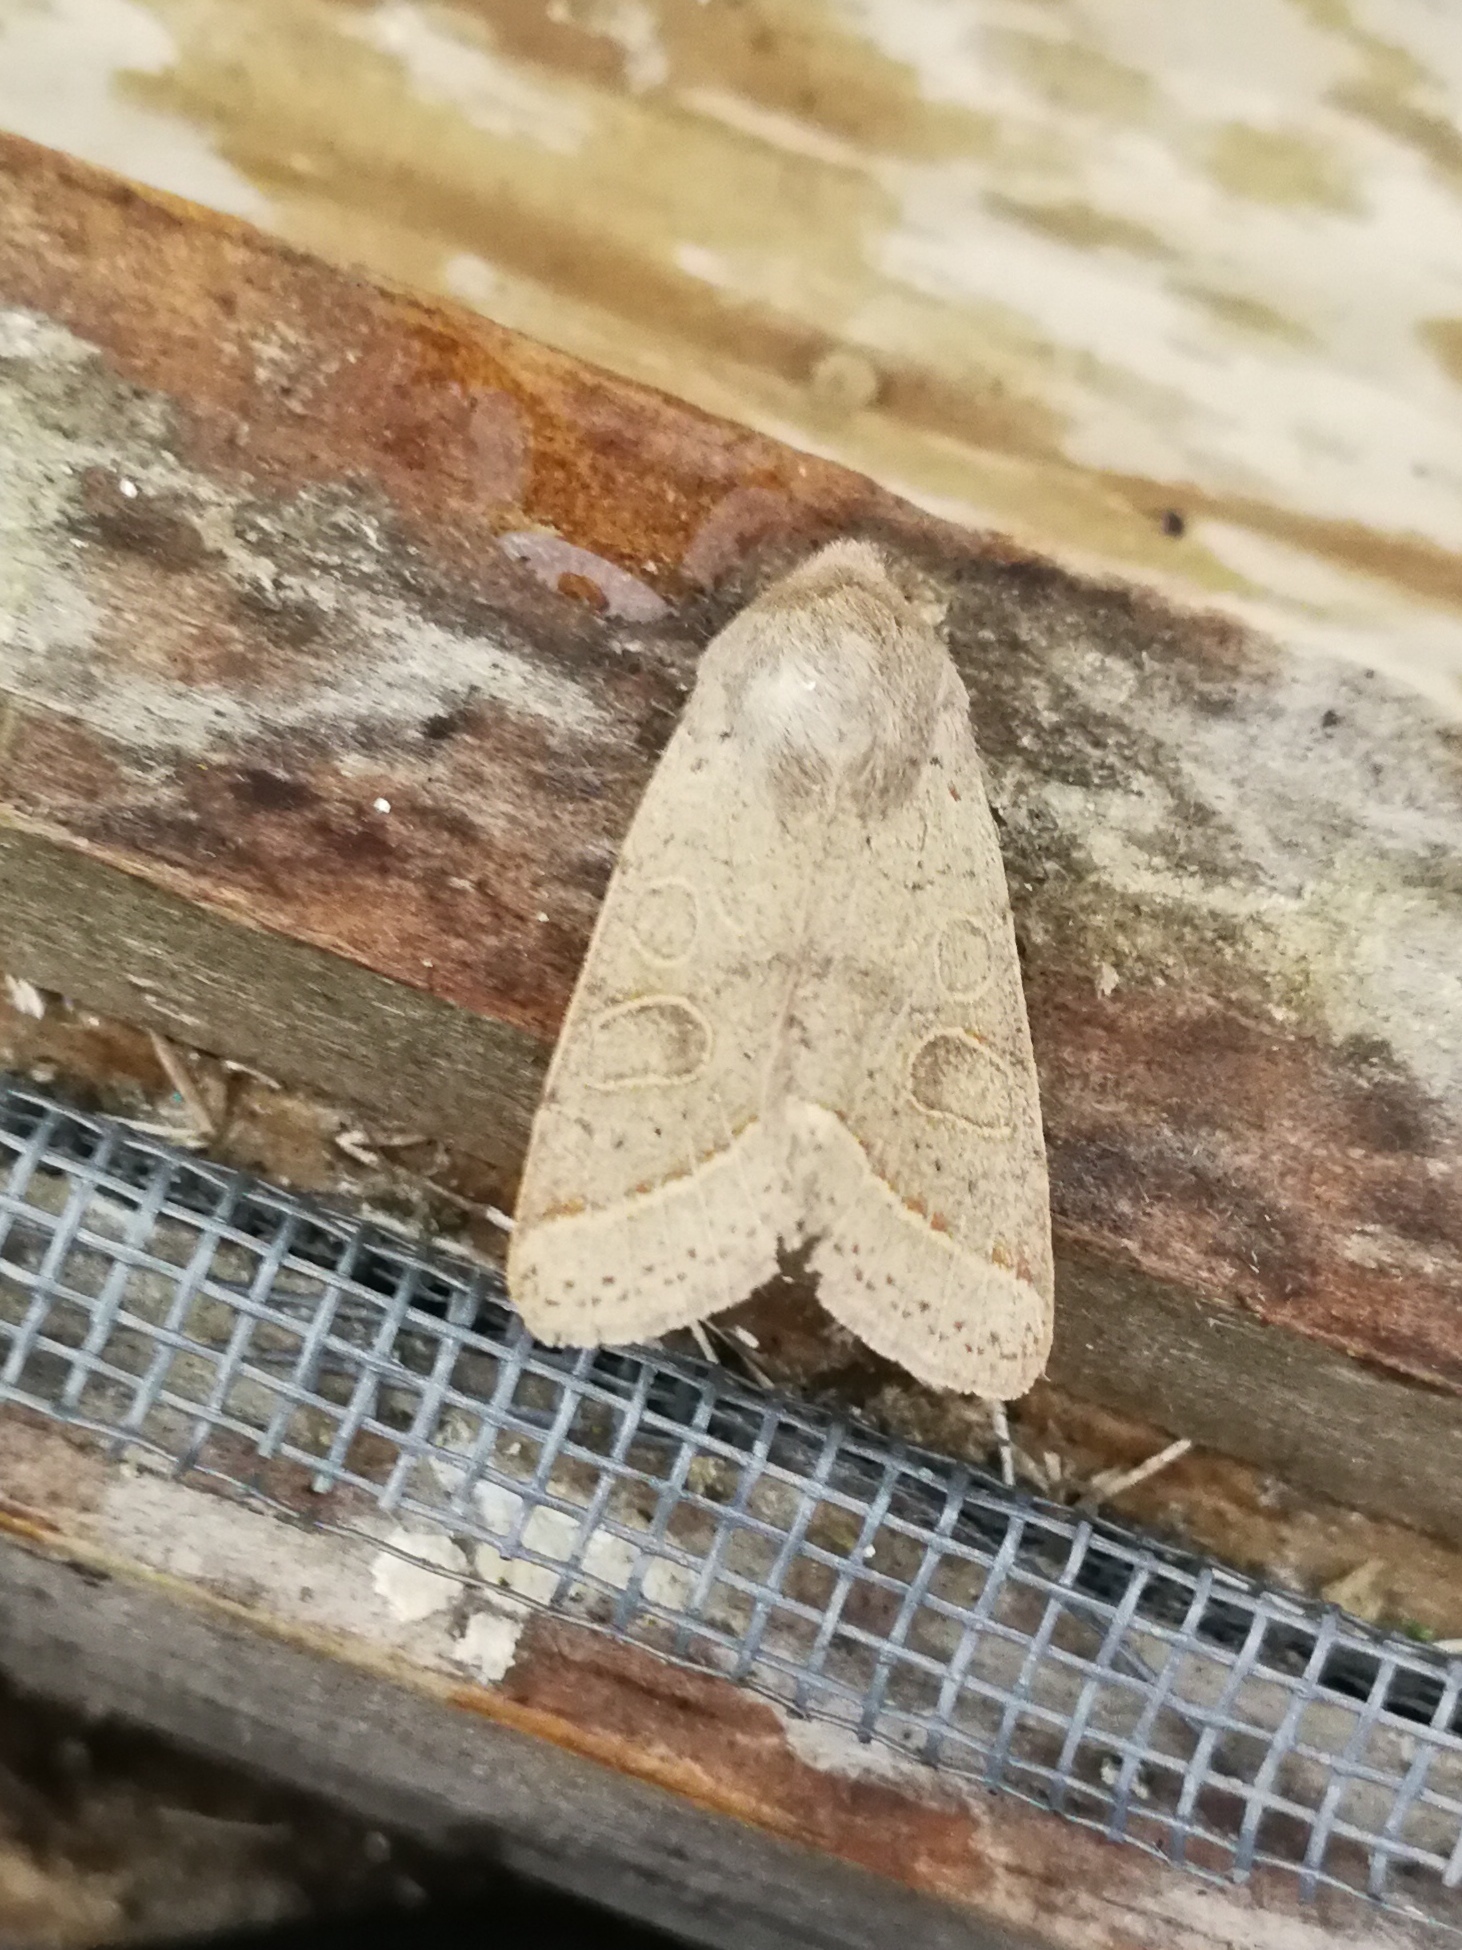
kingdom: Animalia
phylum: Arthropoda
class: Insecta
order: Lepidoptera
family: Noctuidae
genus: Orthosia
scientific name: Orthosia cerasi
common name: Common quaker
